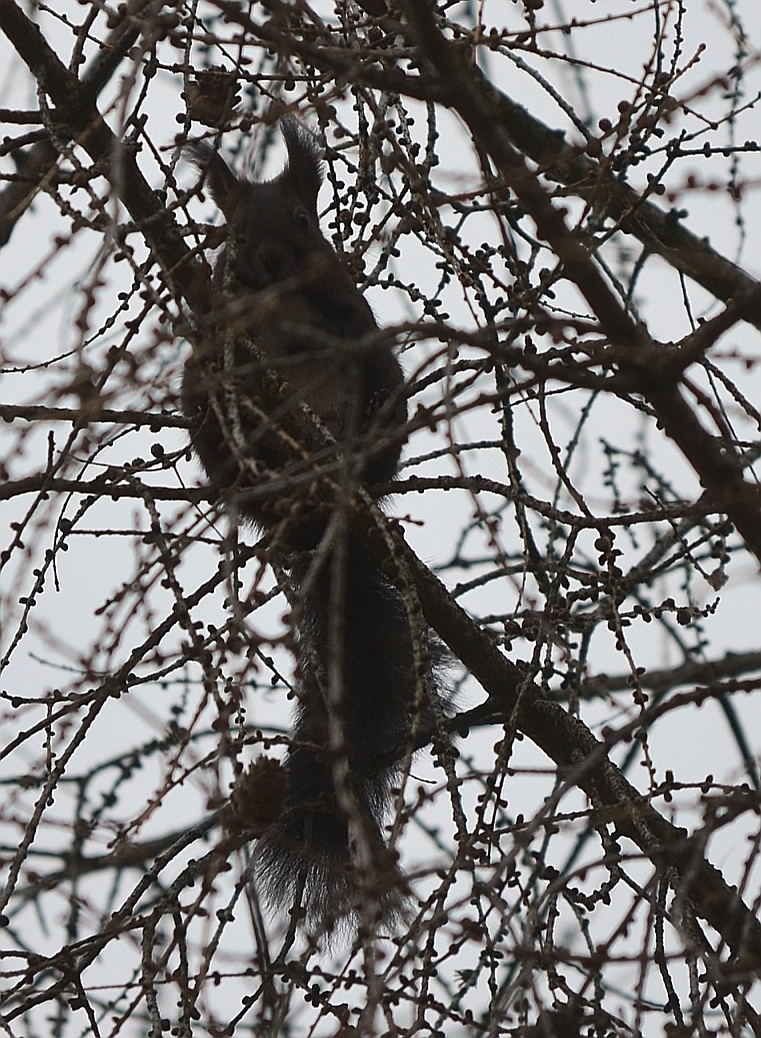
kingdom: Animalia
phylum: Chordata
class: Mammalia
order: Rodentia
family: Sciuridae
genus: Sciurus
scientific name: Sciurus vulgaris
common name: Eurasian red squirrel
